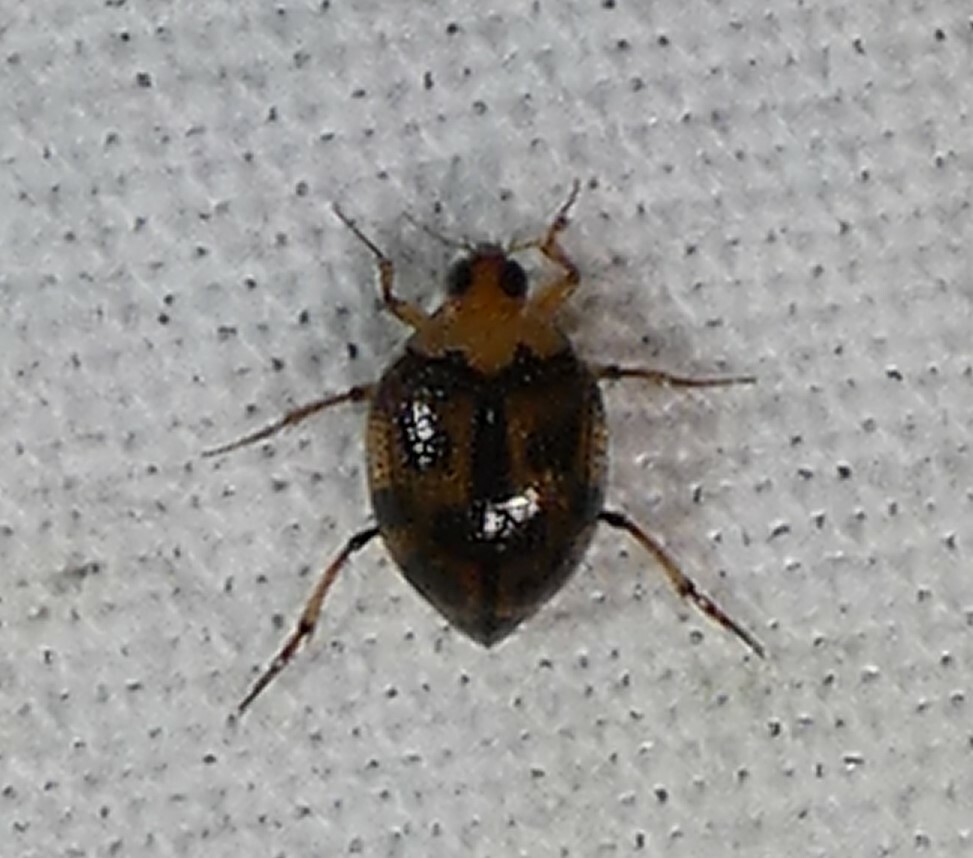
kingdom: Animalia
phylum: Arthropoda
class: Insecta
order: Coleoptera
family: Haliplidae
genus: Peltodytes
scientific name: Peltodytes
